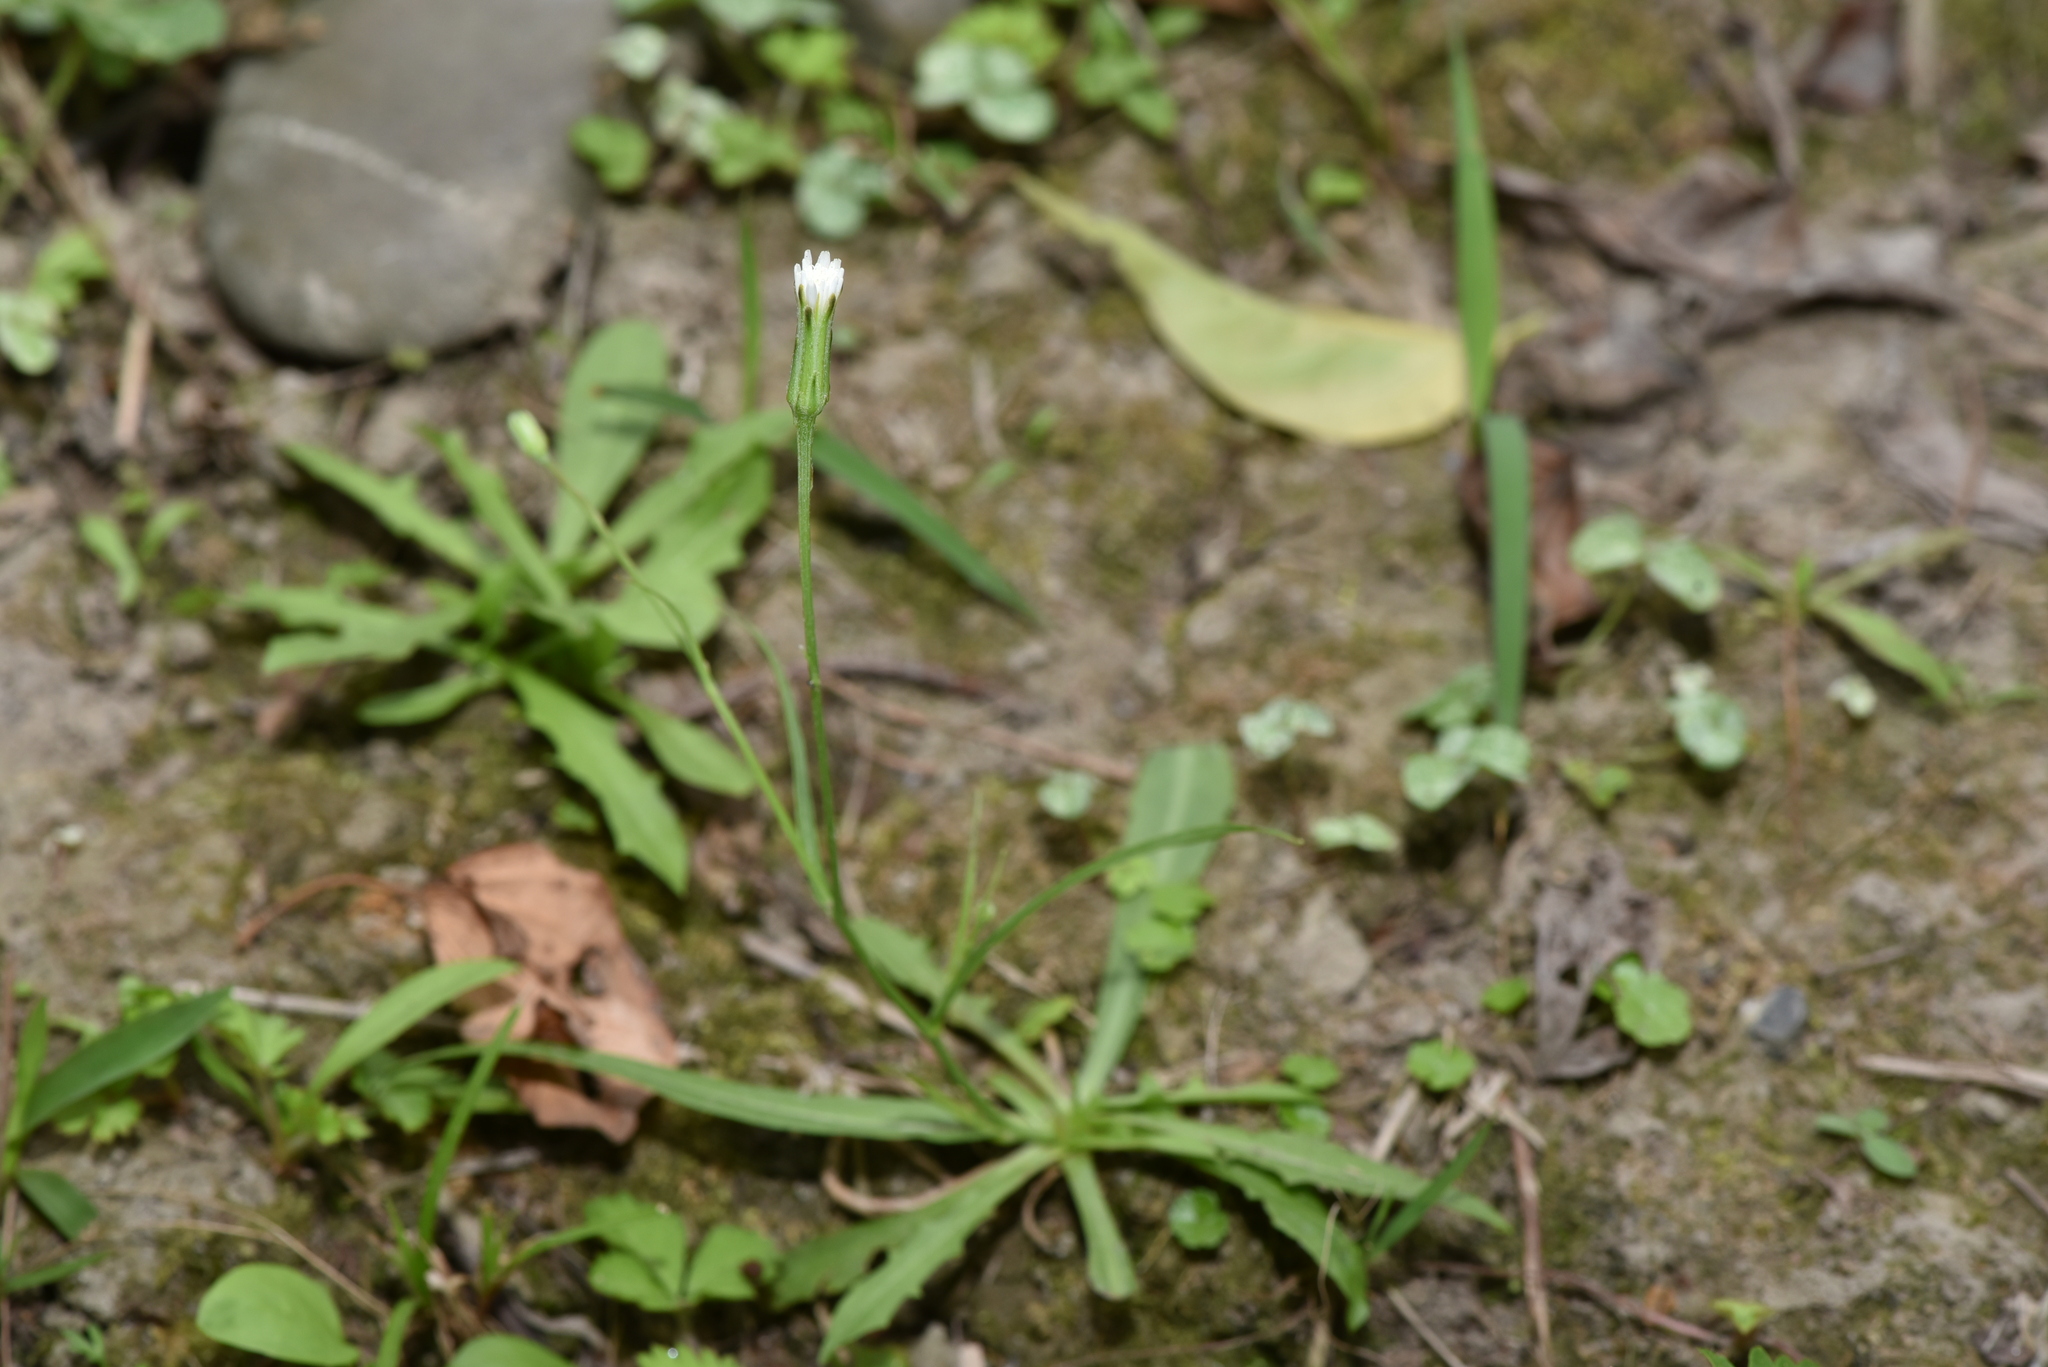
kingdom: Plantae
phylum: Tracheophyta
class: Magnoliopsida
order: Asterales
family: Asteraceae
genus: Hypochaeris
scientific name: Hypochaeris albiflora
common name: White flatweed
